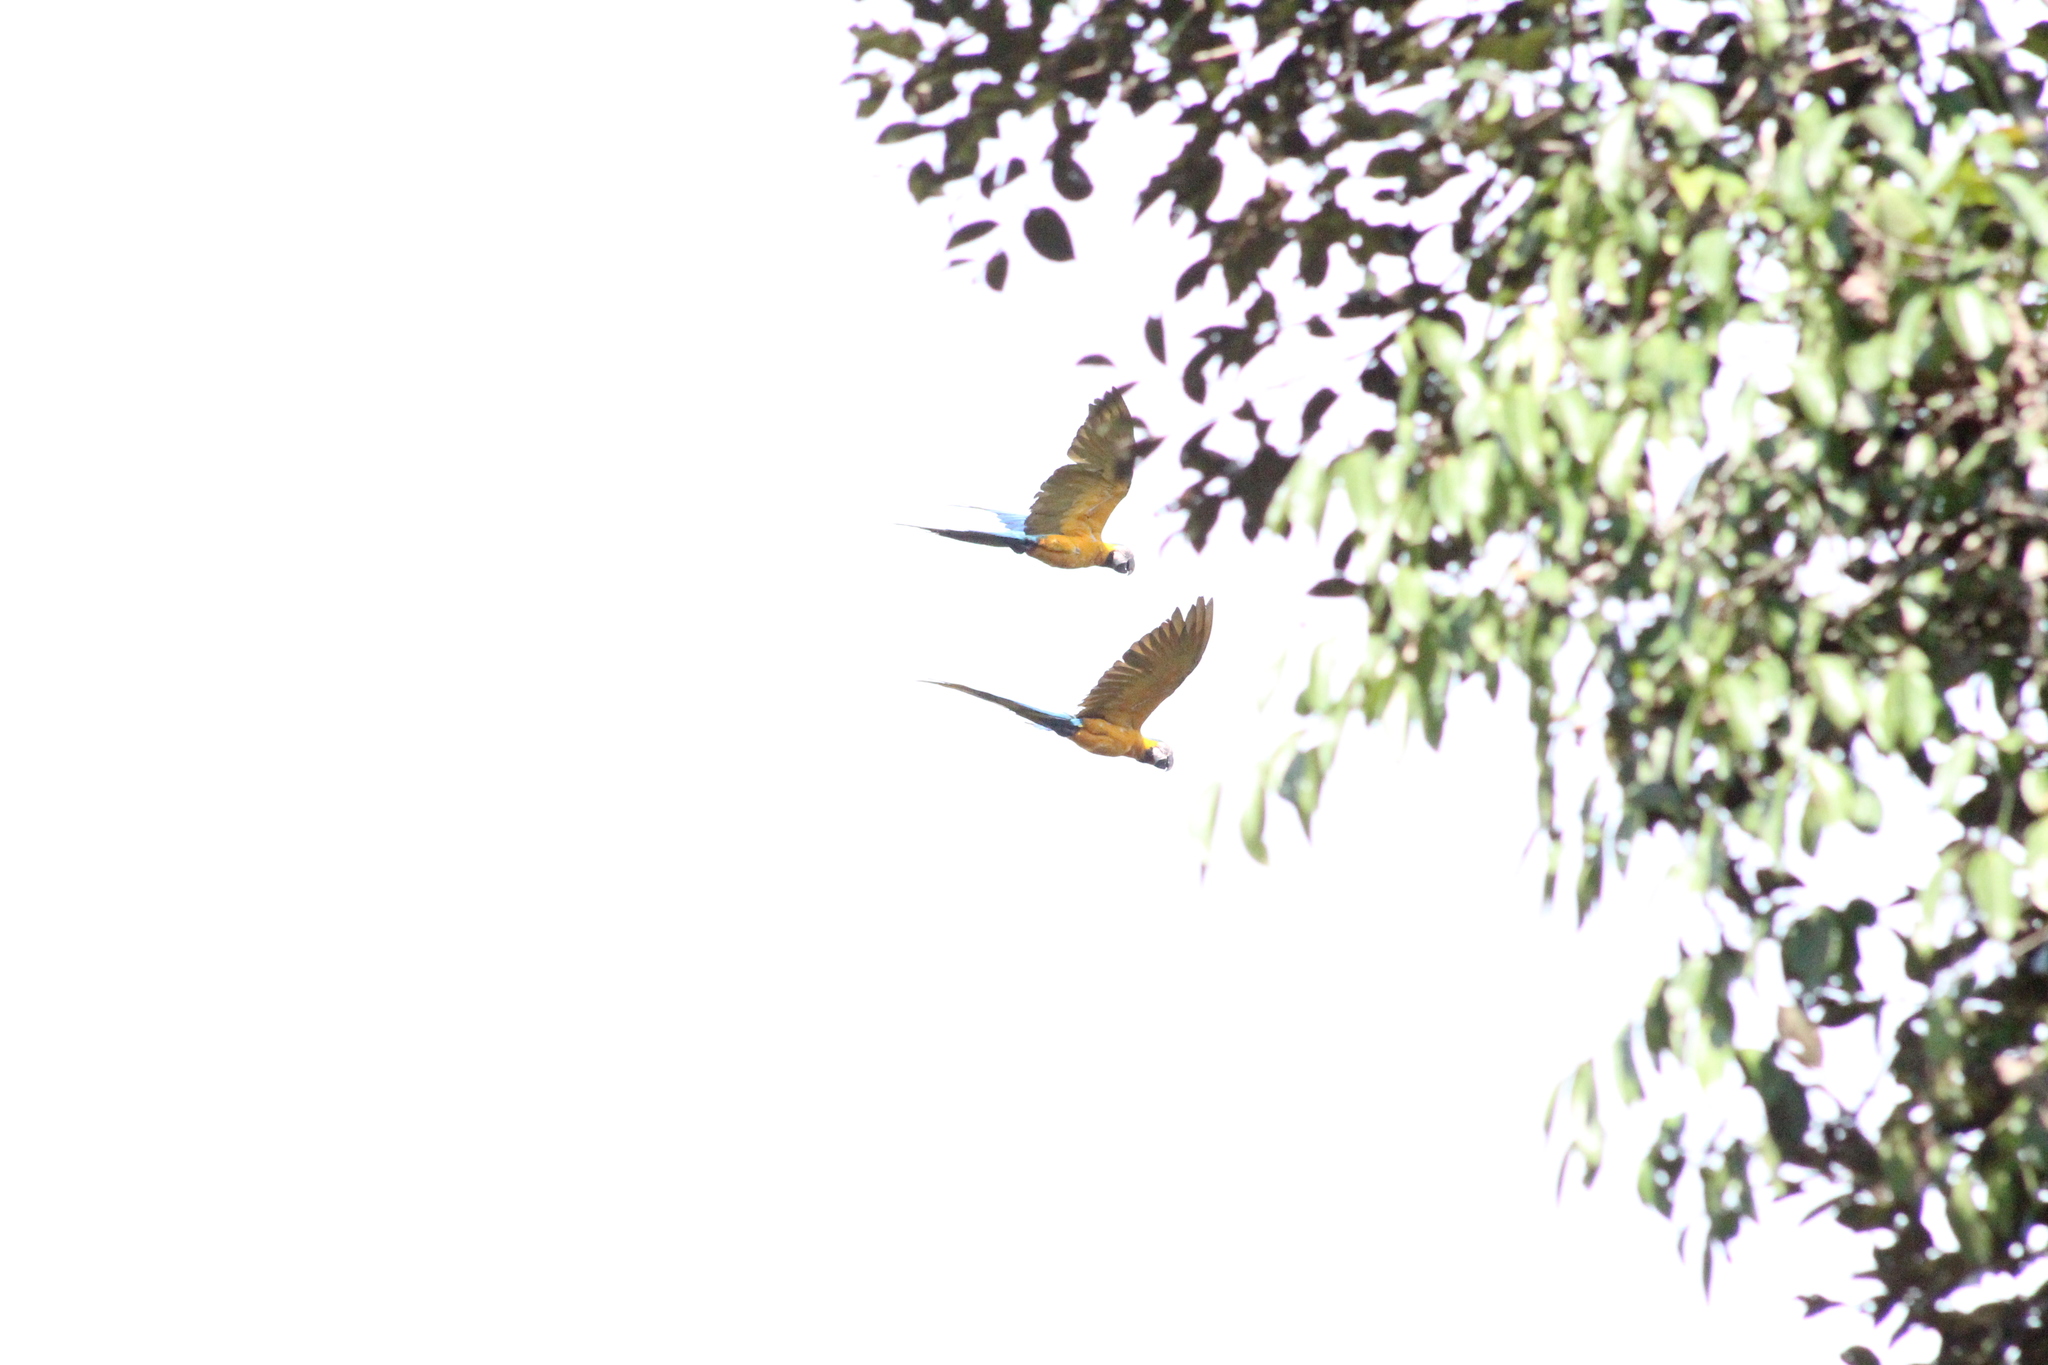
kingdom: Animalia
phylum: Chordata
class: Aves
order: Psittaciformes
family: Psittacidae
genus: Ara
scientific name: Ara ararauna
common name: Blue-and-yellow macaw
